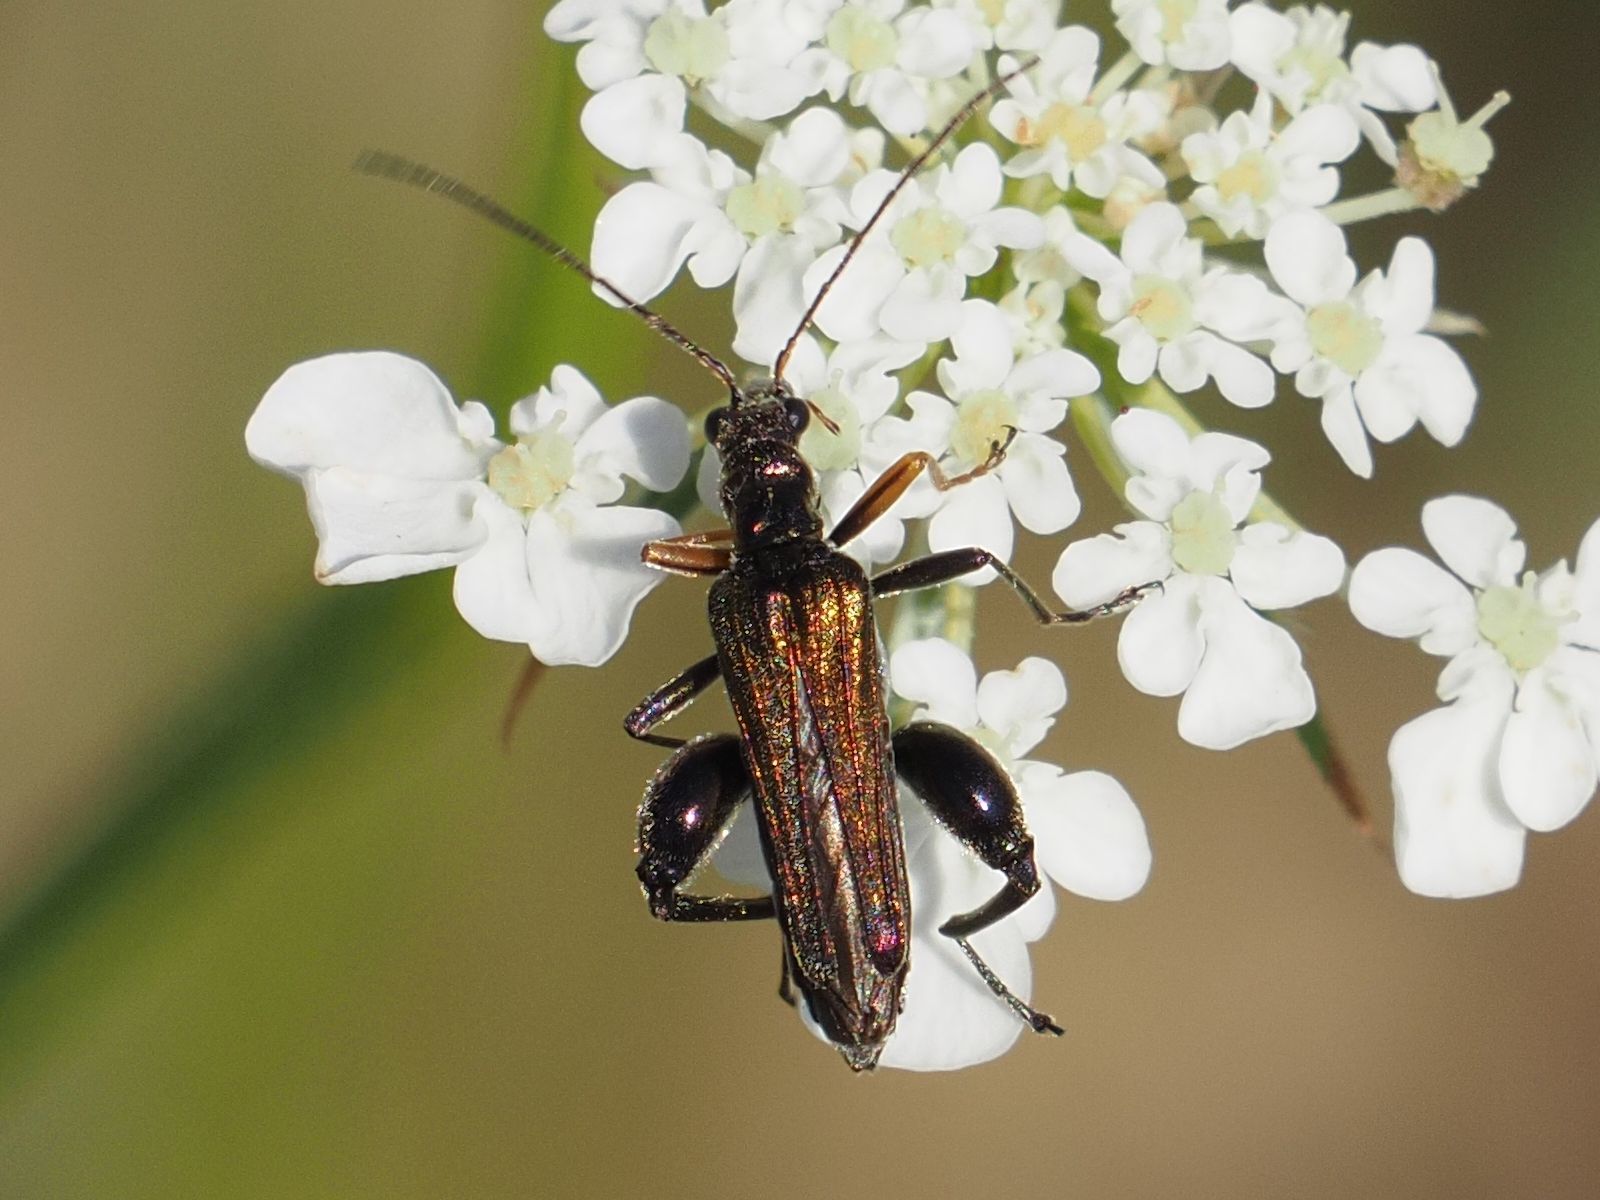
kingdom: Animalia
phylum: Arthropoda
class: Insecta
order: Coleoptera
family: Oedemeridae
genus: Oedemera
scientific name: Oedemera flavipes
